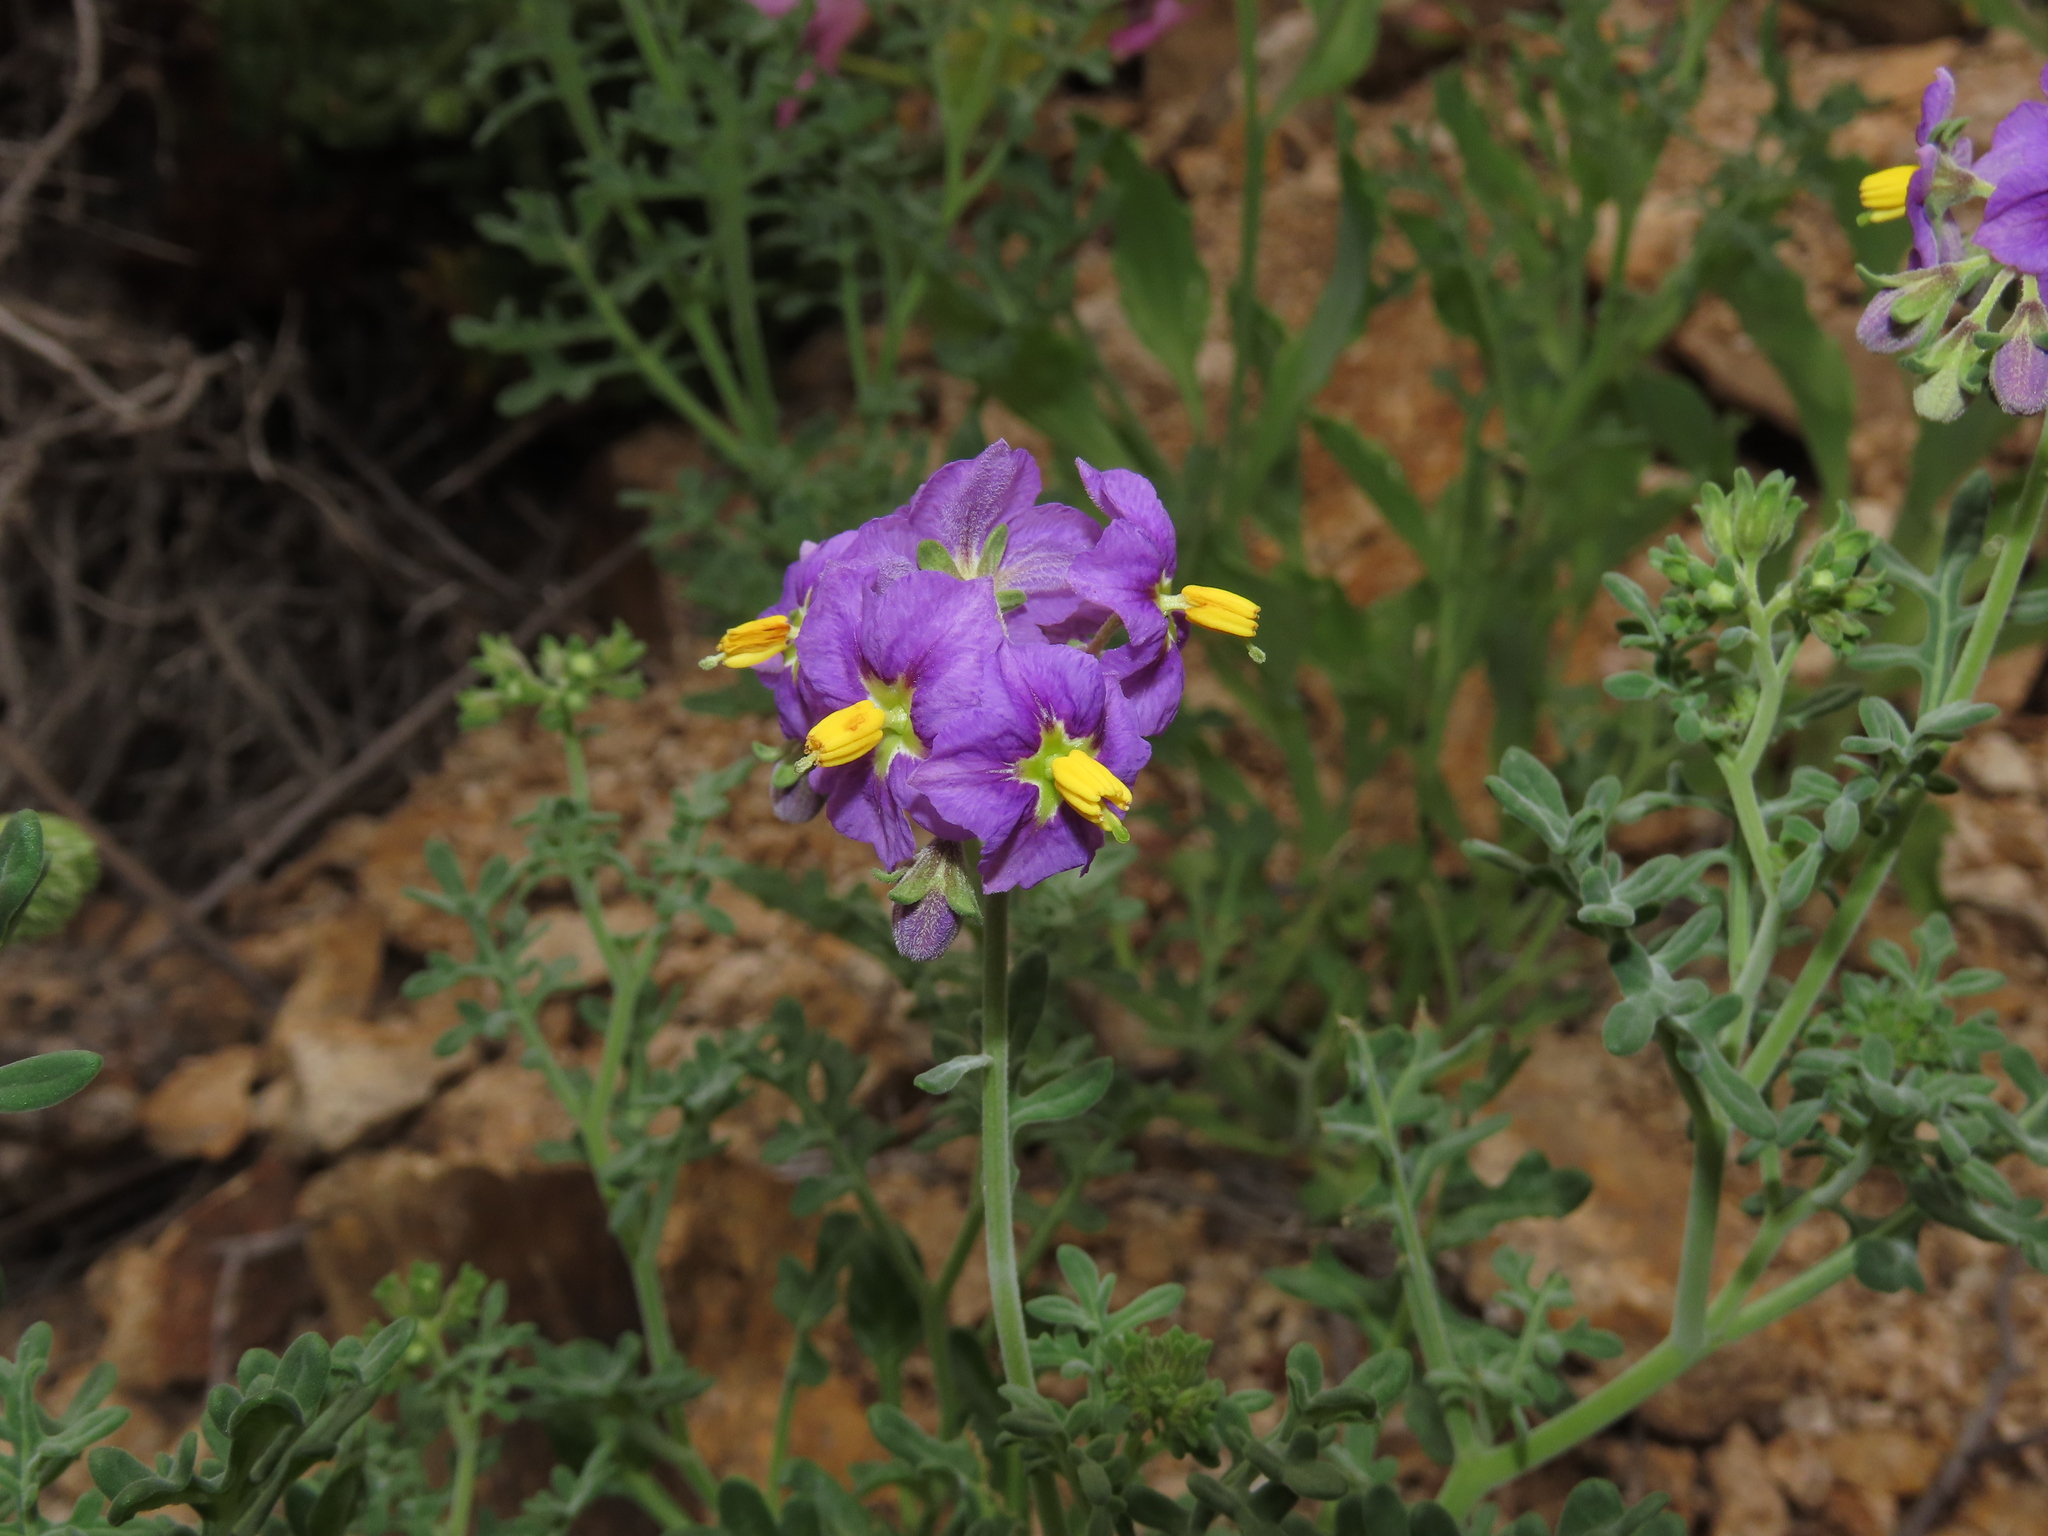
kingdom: Plantae
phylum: Tracheophyta
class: Magnoliopsida
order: Solanales
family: Solanaceae
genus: Solanum
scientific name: Solanum remyanum
